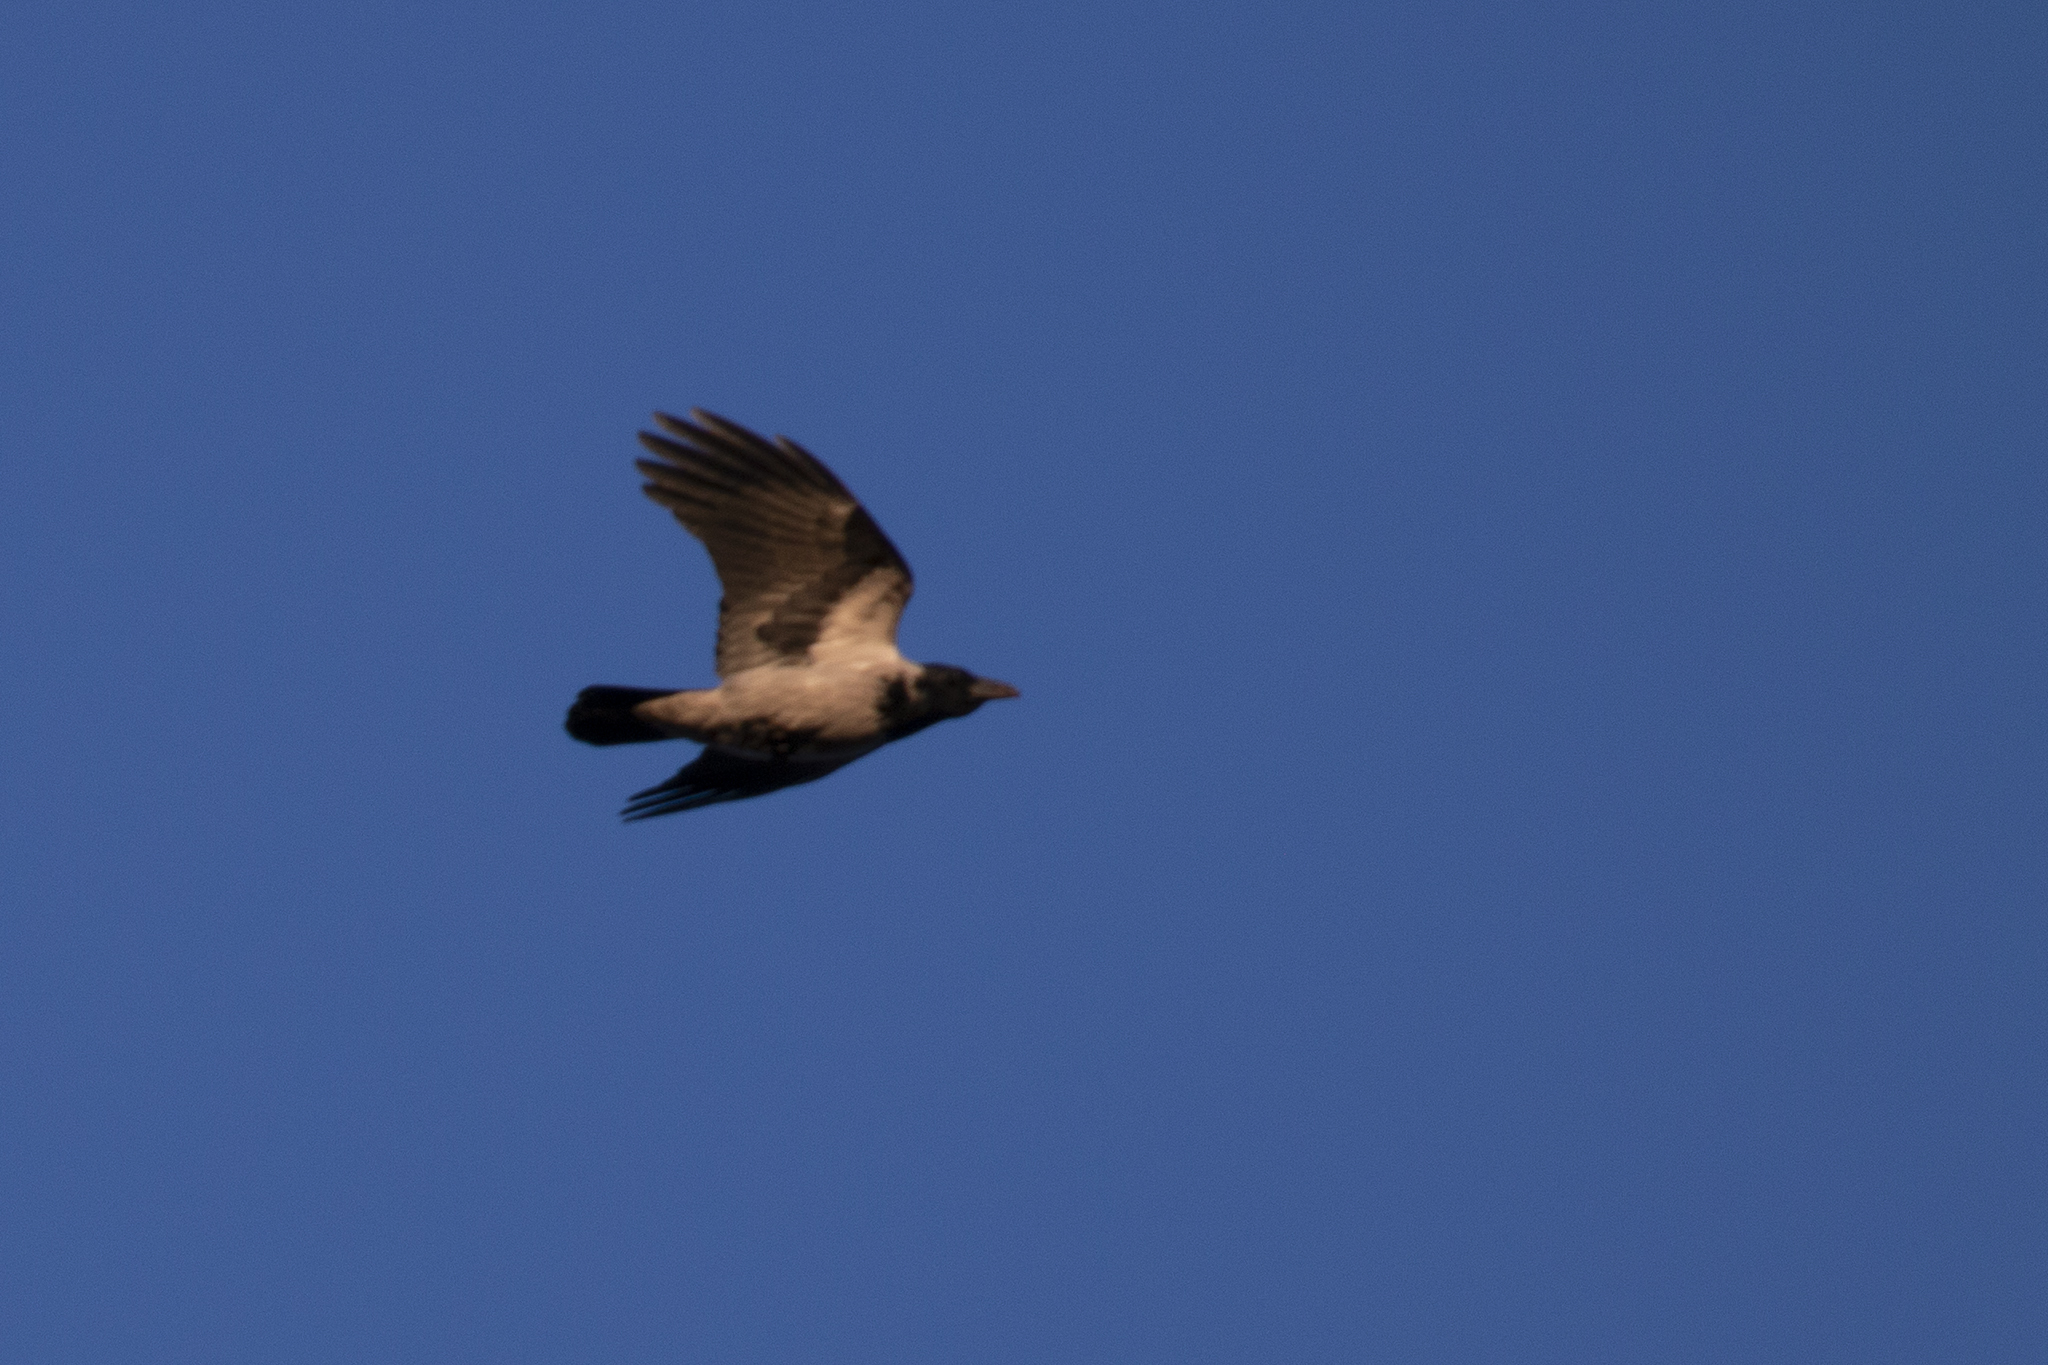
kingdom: Animalia
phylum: Chordata
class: Aves
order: Passeriformes
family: Corvidae
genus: Corvus
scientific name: Corvus cornix
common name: Hooded crow
